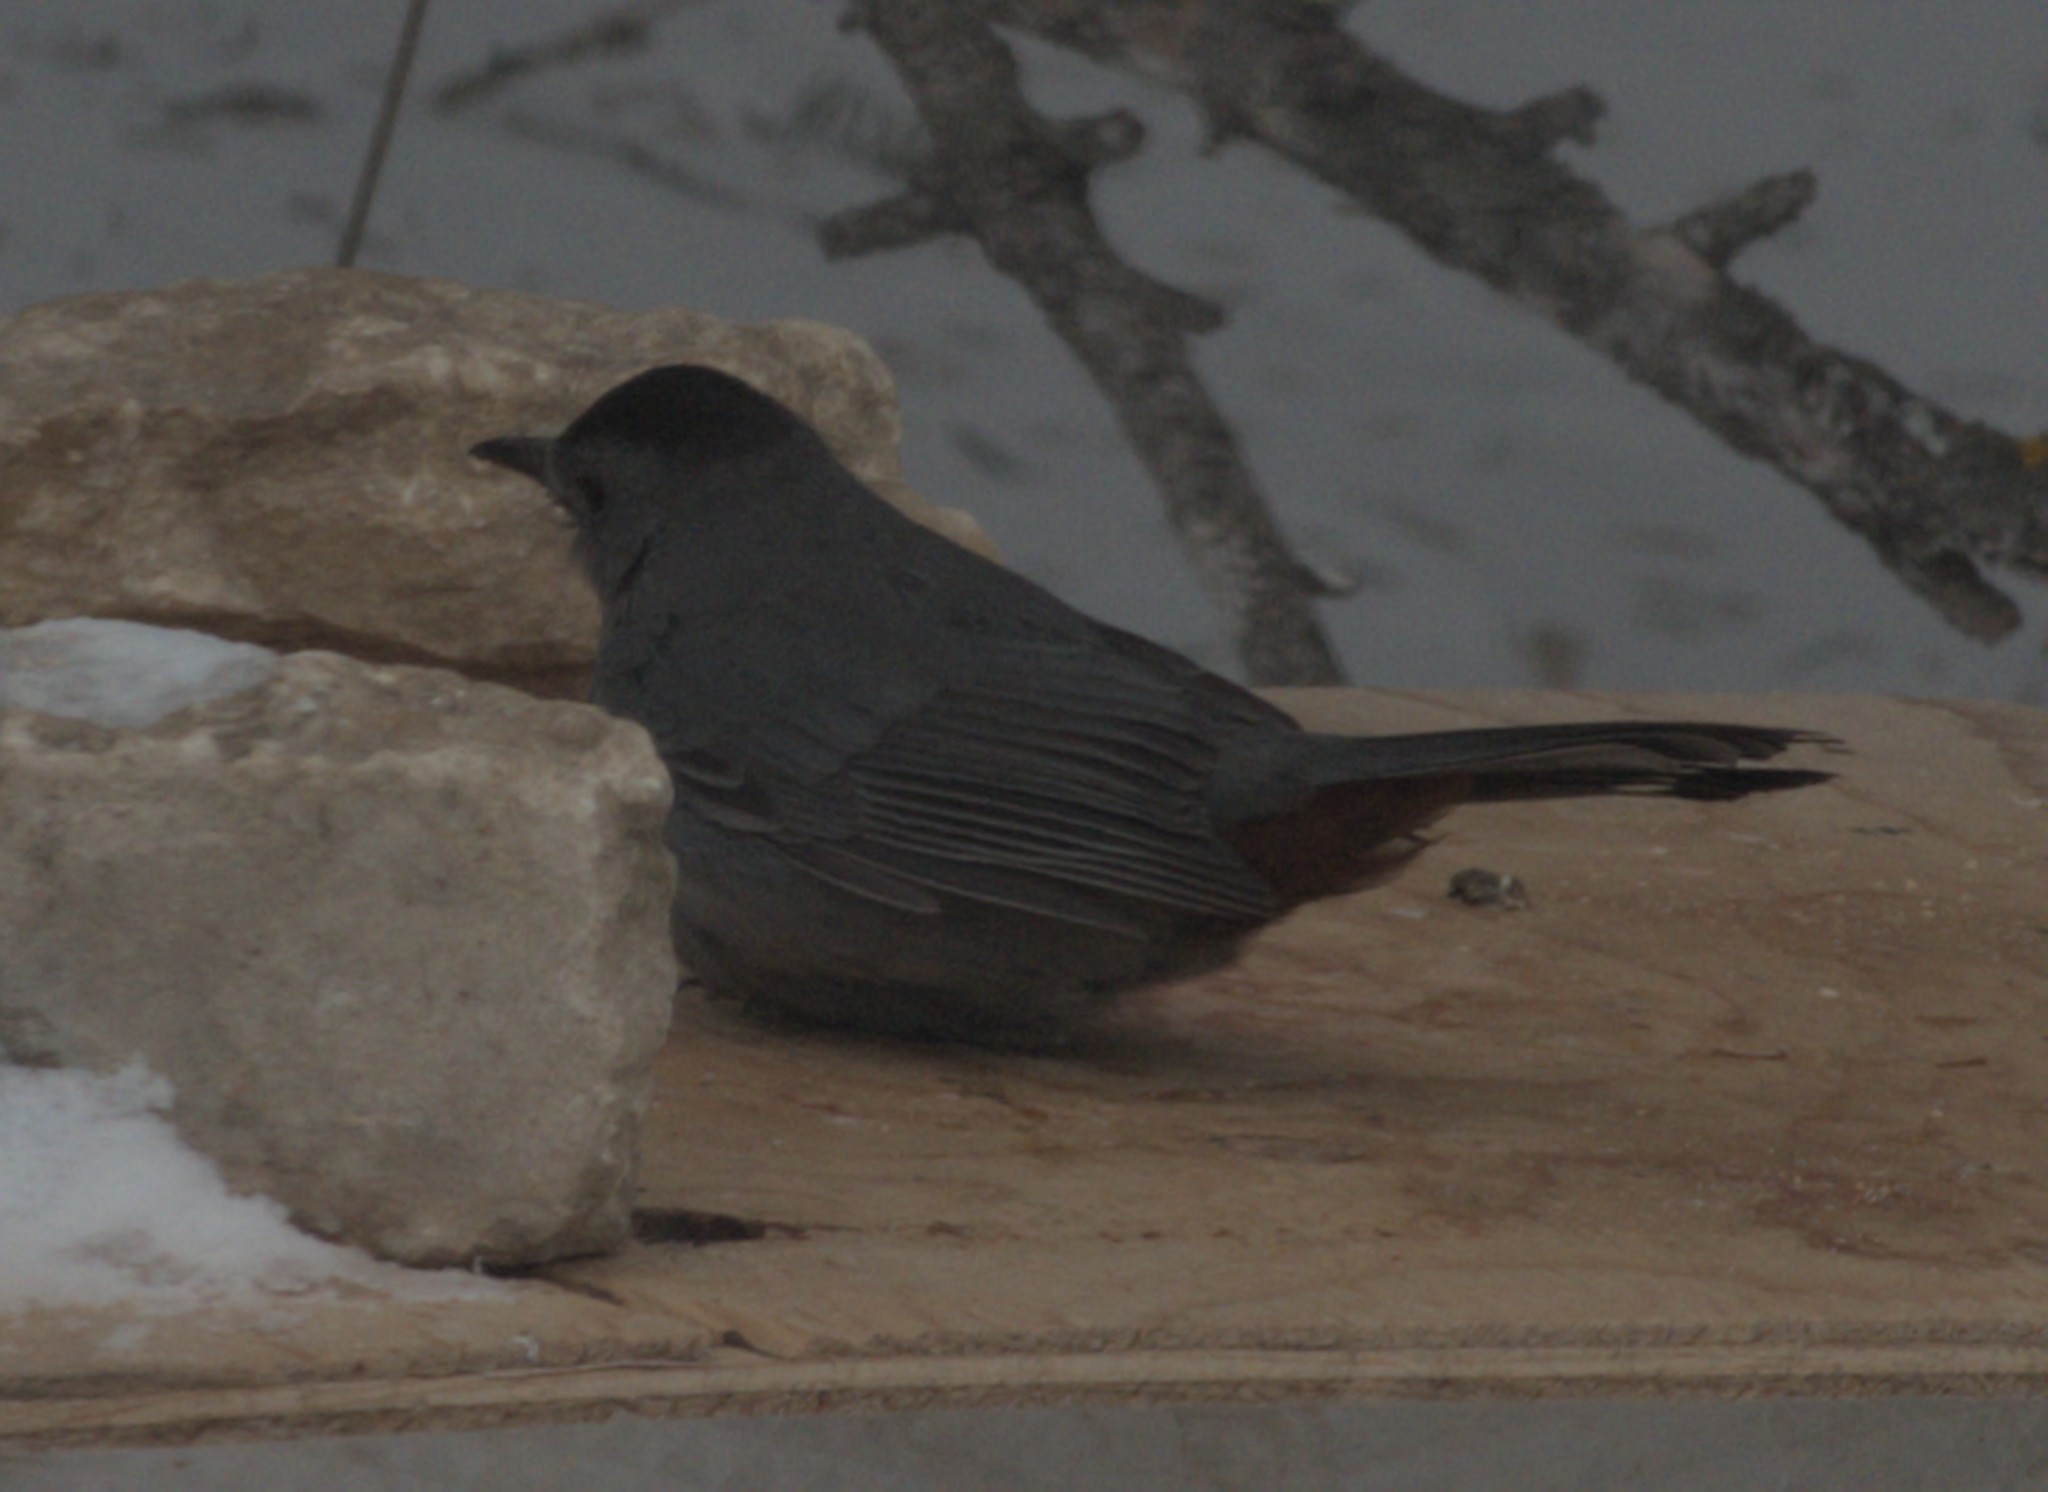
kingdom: Animalia
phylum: Chordata
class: Aves
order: Passeriformes
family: Mimidae
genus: Dumetella
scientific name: Dumetella carolinensis
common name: Gray catbird
